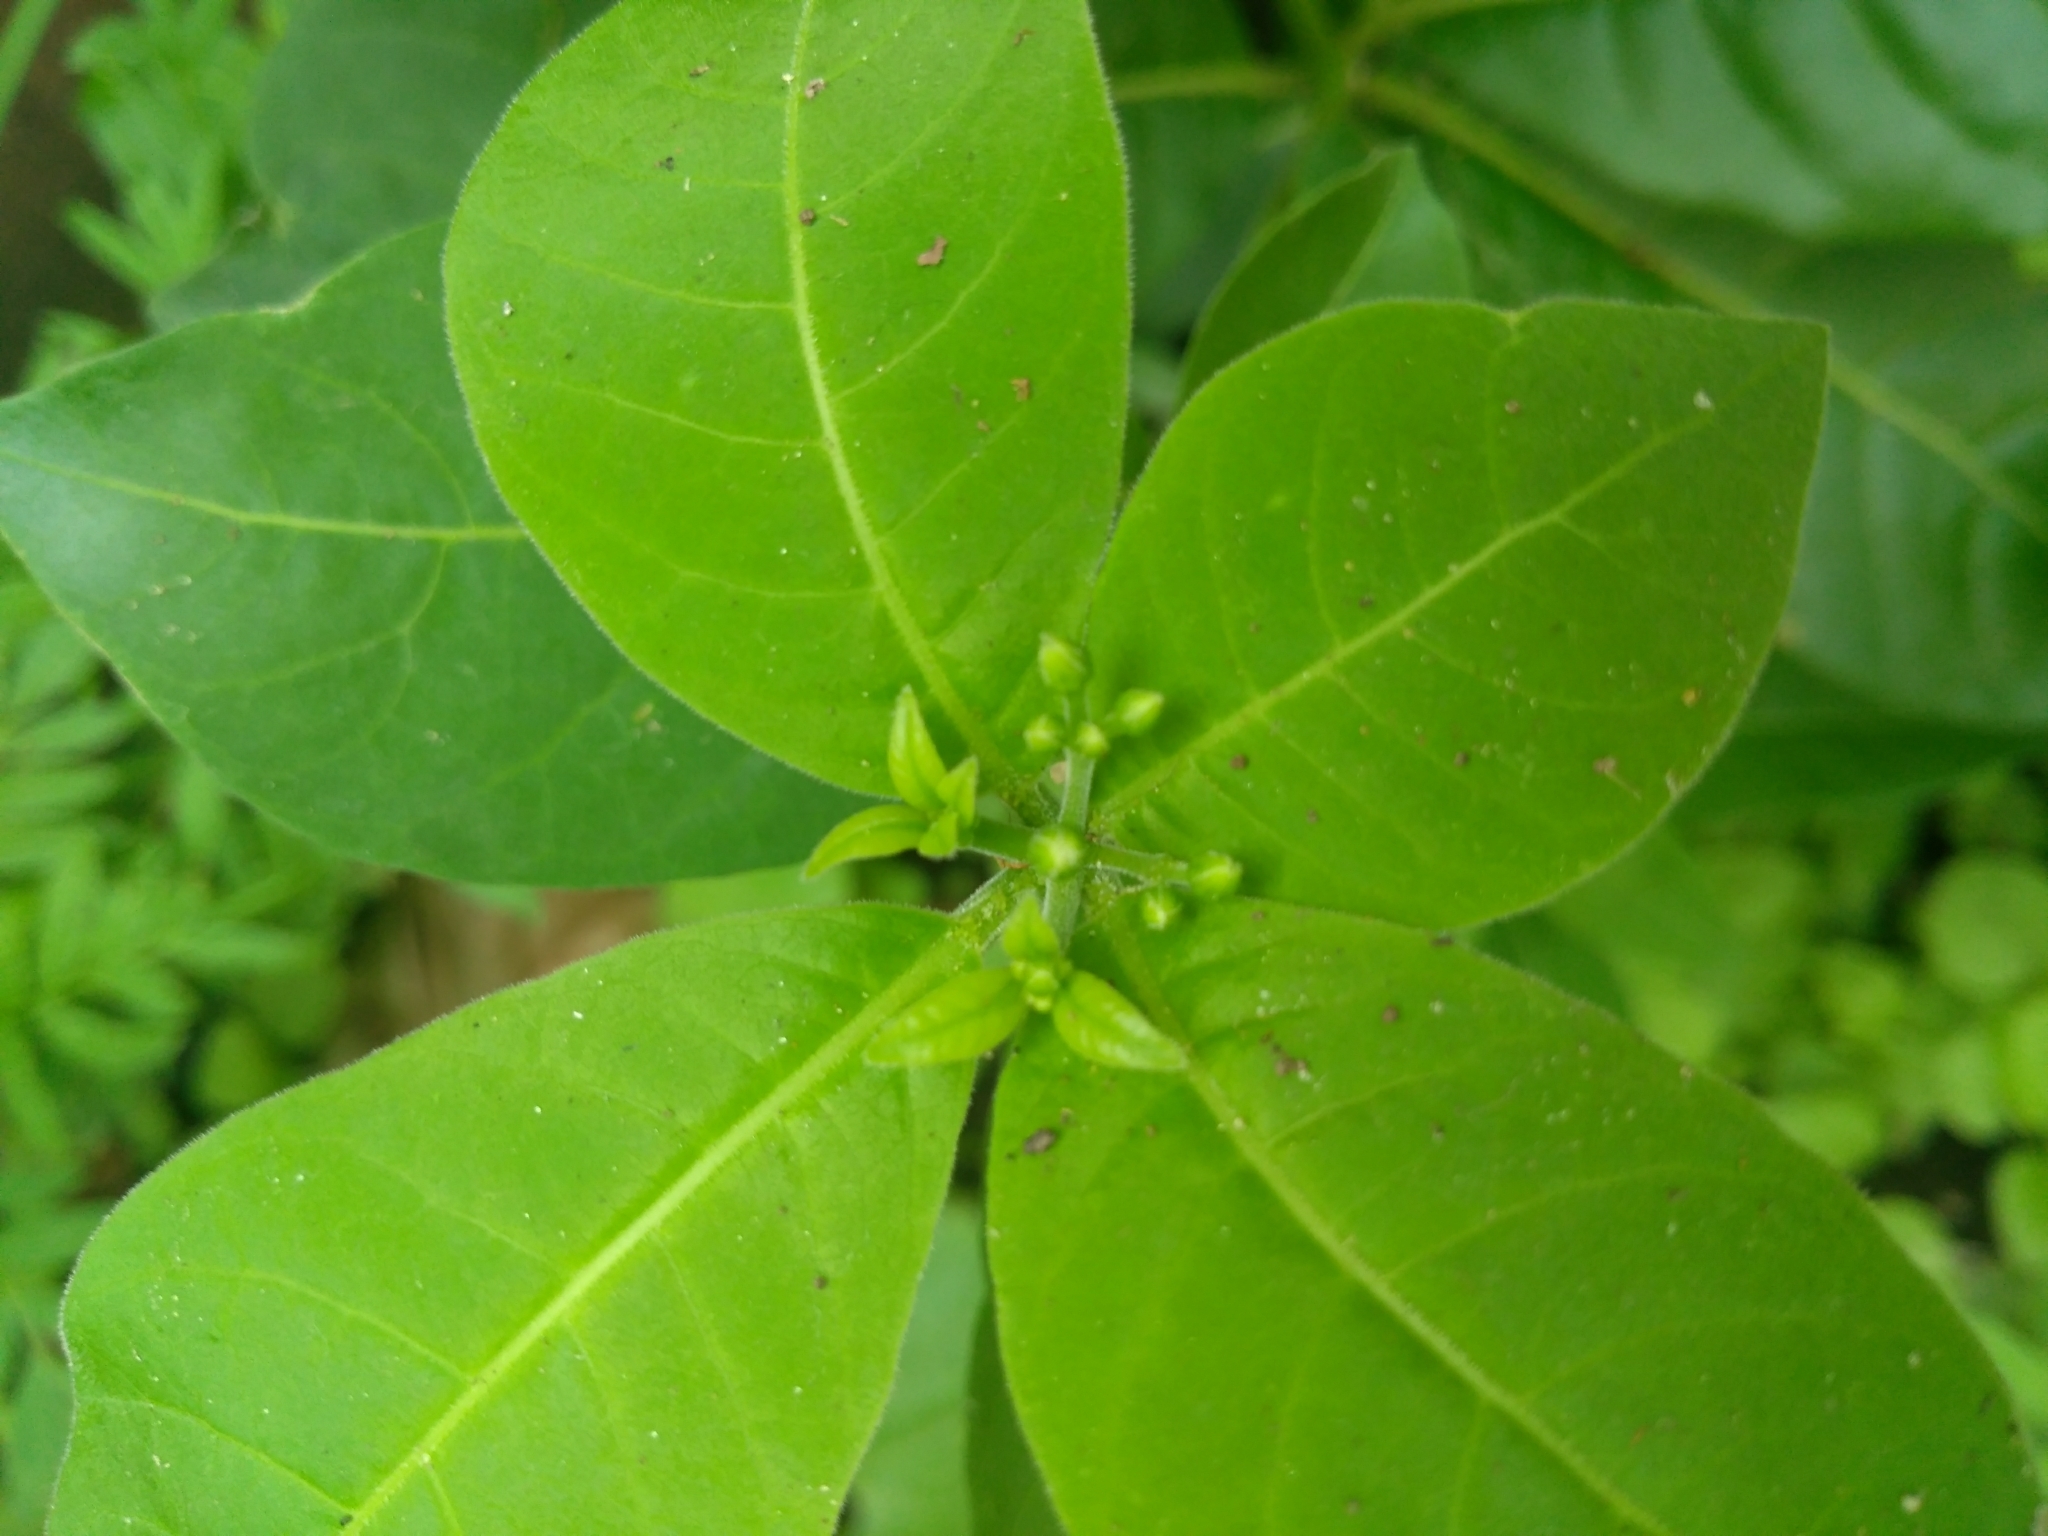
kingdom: Plantae
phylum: Tracheophyta
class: Magnoliopsida
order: Gentianales
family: Apocynaceae
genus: Rauvolfia
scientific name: Rauvolfia tetraphylla
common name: Four-leaf devil-pepper
